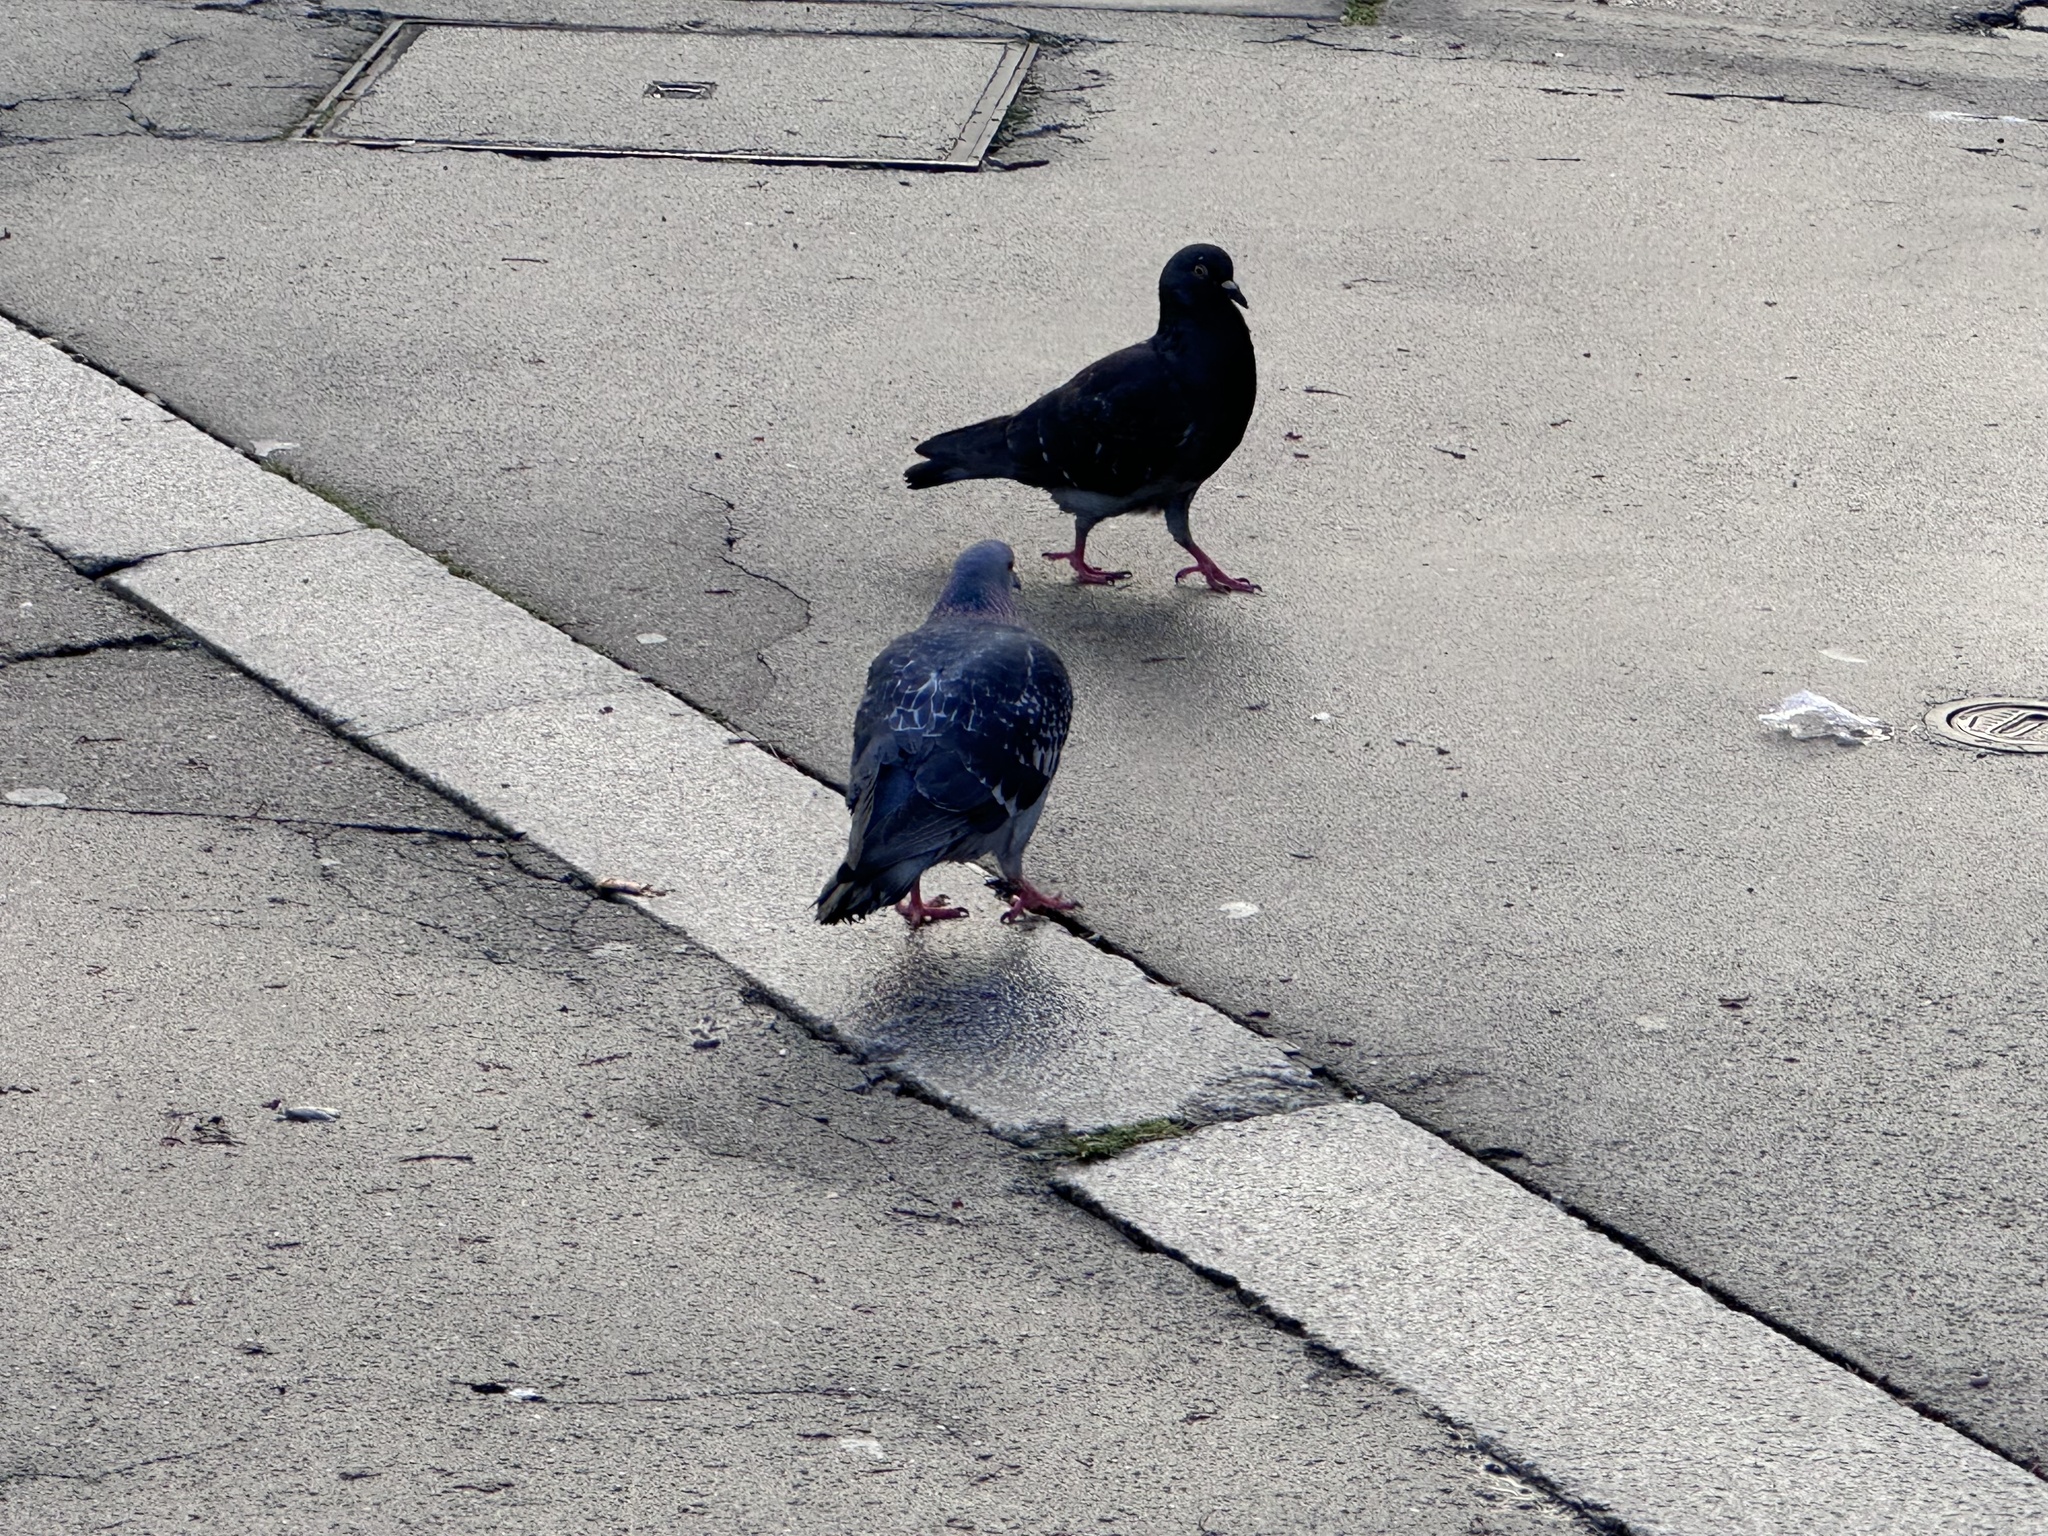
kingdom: Animalia
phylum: Chordata
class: Aves
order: Columbiformes
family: Columbidae
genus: Columba
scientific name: Columba livia
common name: Rock pigeon
